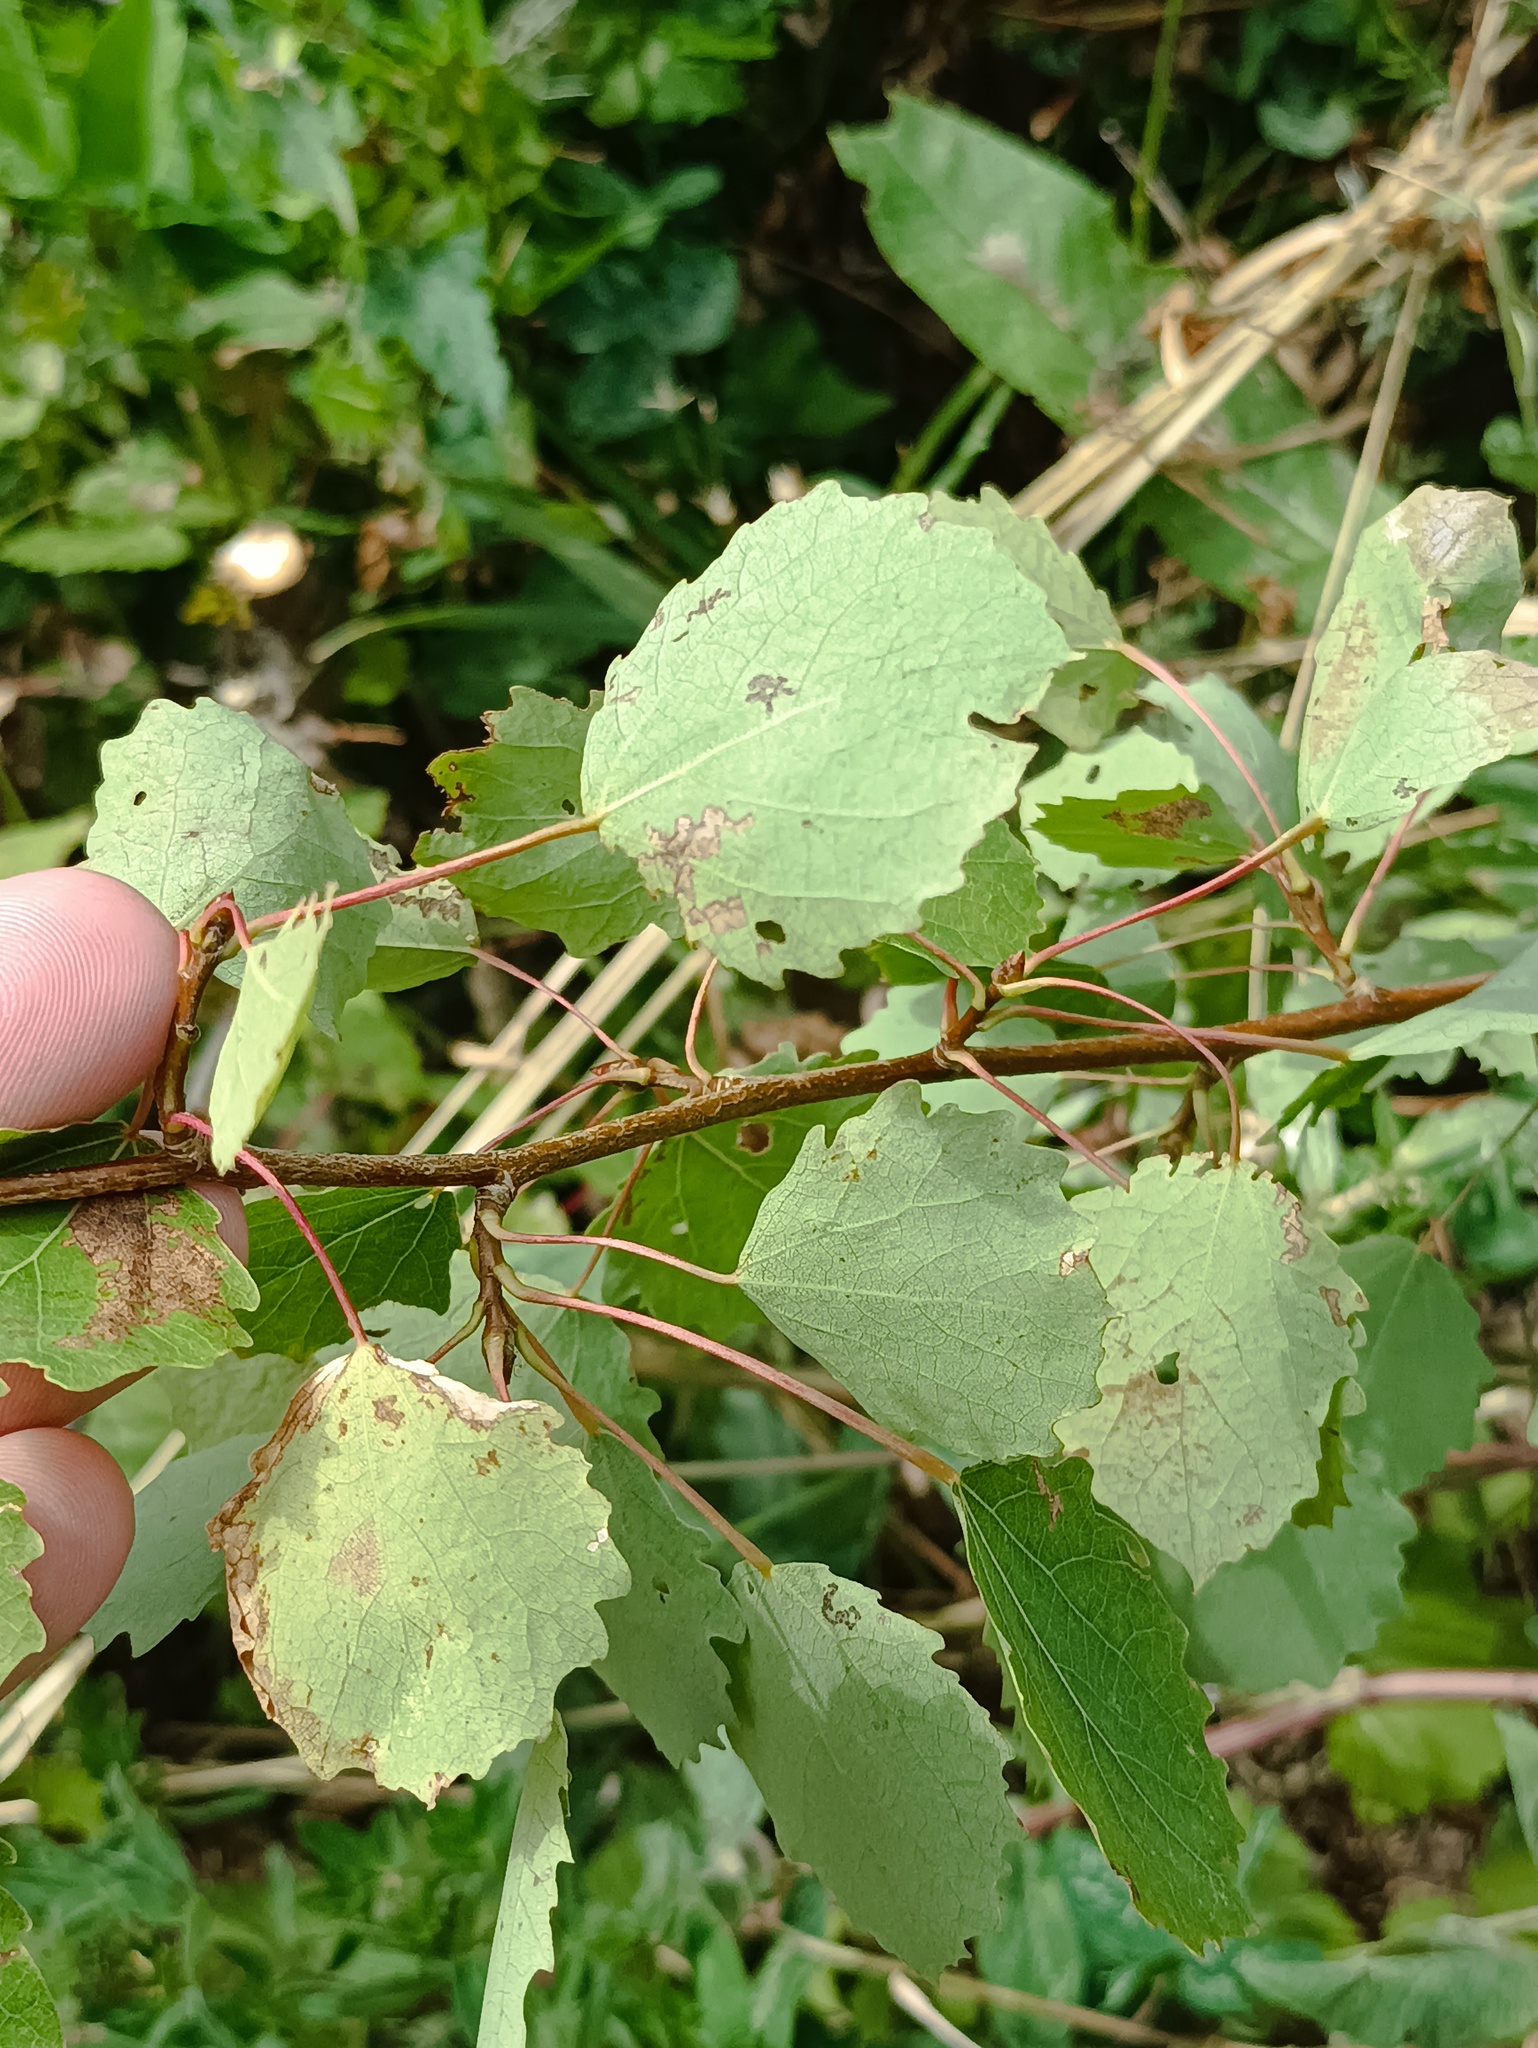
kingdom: Plantae
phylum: Tracheophyta
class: Magnoliopsida
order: Malpighiales
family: Salicaceae
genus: Populus
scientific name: Populus tremula
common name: European aspen
